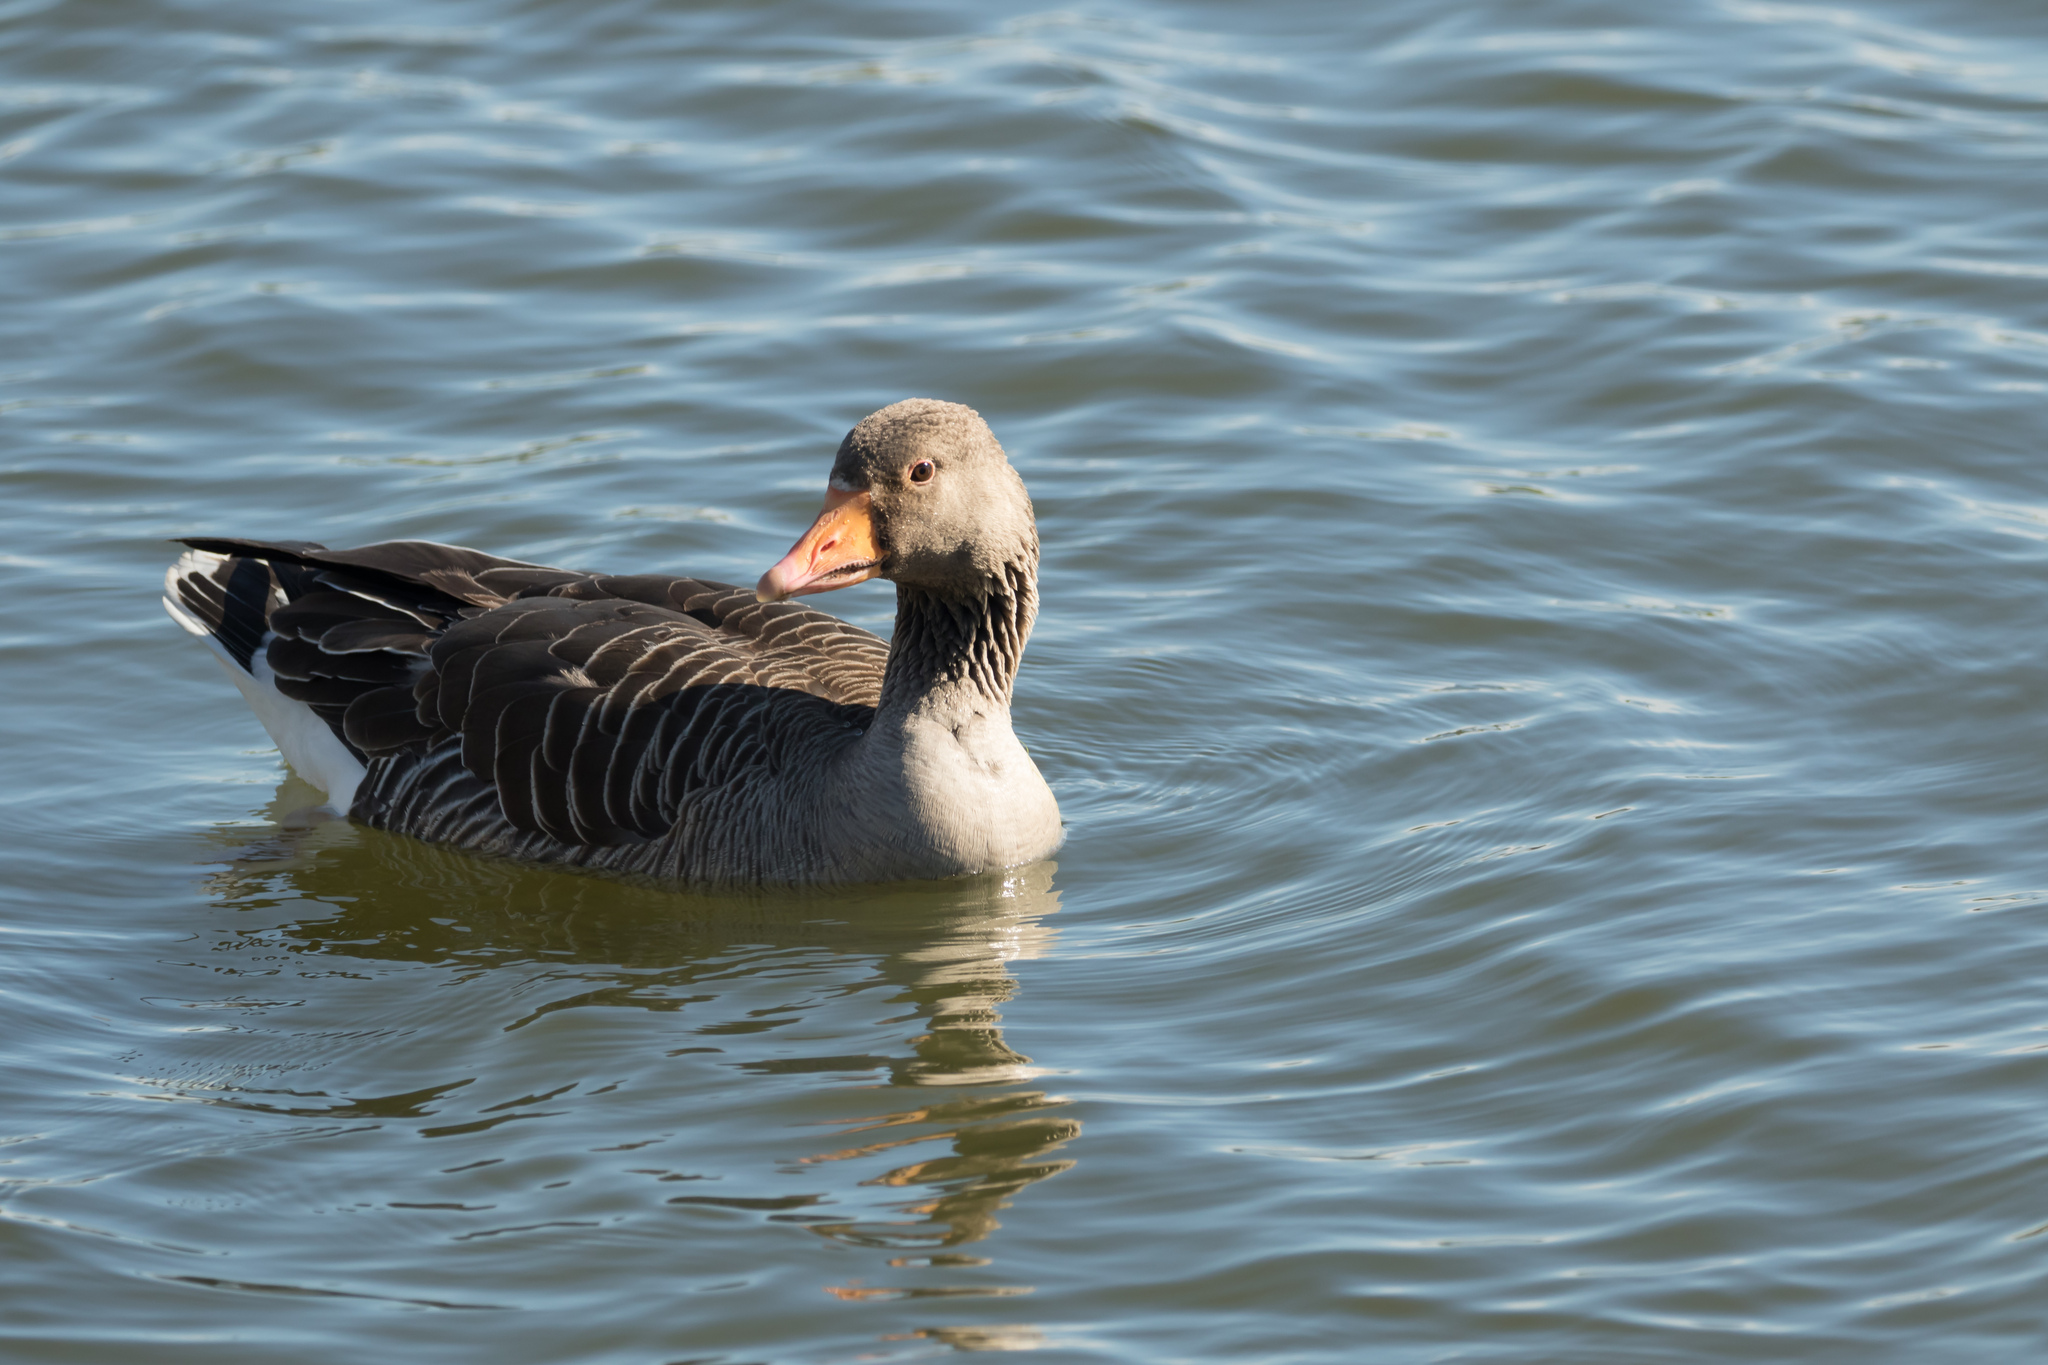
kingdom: Animalia
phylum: Chordata
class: Aves
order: Anseriformes
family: Anatidae
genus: Anser
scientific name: Anser anser
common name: Greylag goose
